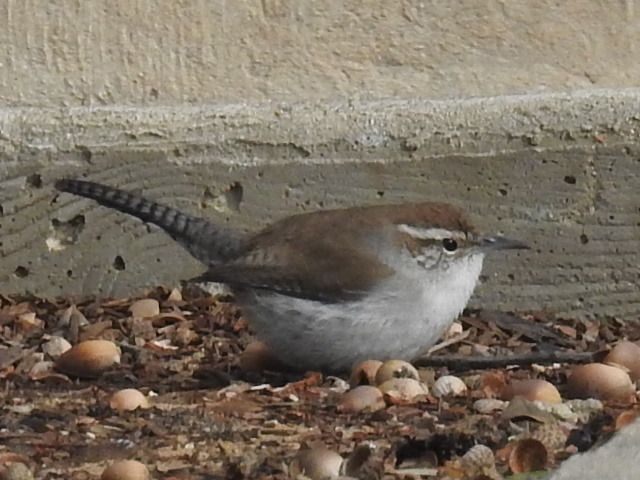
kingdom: Animalia
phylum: Chordata
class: Aves
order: Passeriformes
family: Troglodytidae
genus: Thryomanes
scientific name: Thryomanes bewickii
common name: Bewick's wren
